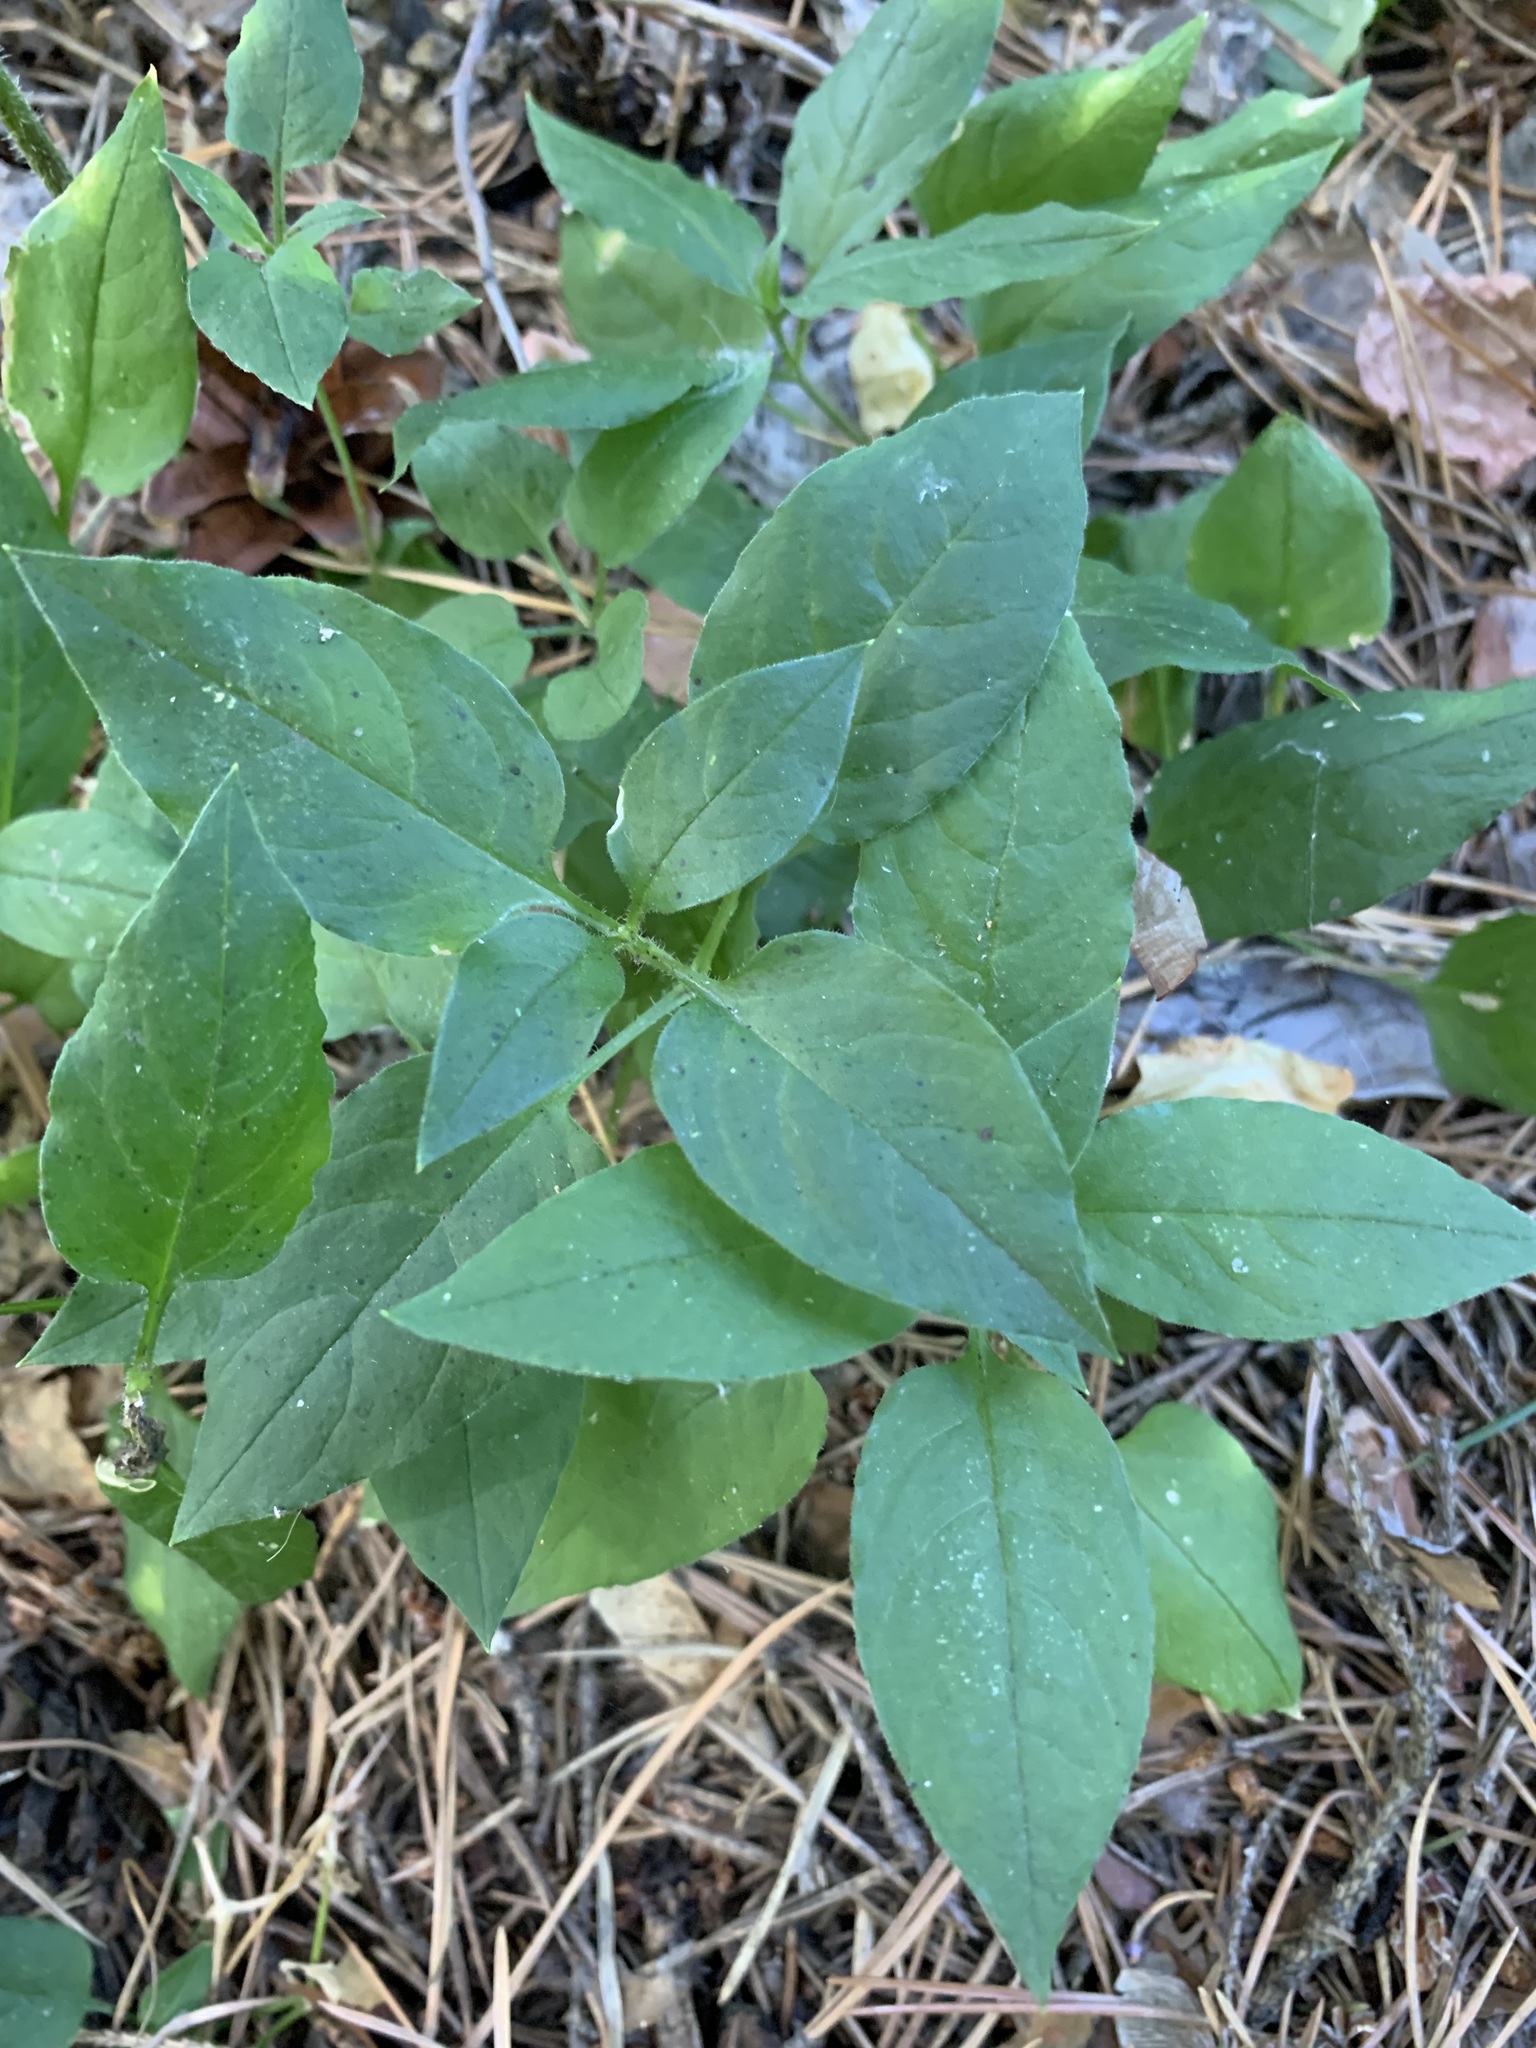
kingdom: Plantae
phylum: Tracheophyta
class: Magnoliopsida
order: Caryophyllales
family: Caryophyllaceae
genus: Stellaria
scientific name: Stellaria bungeana
